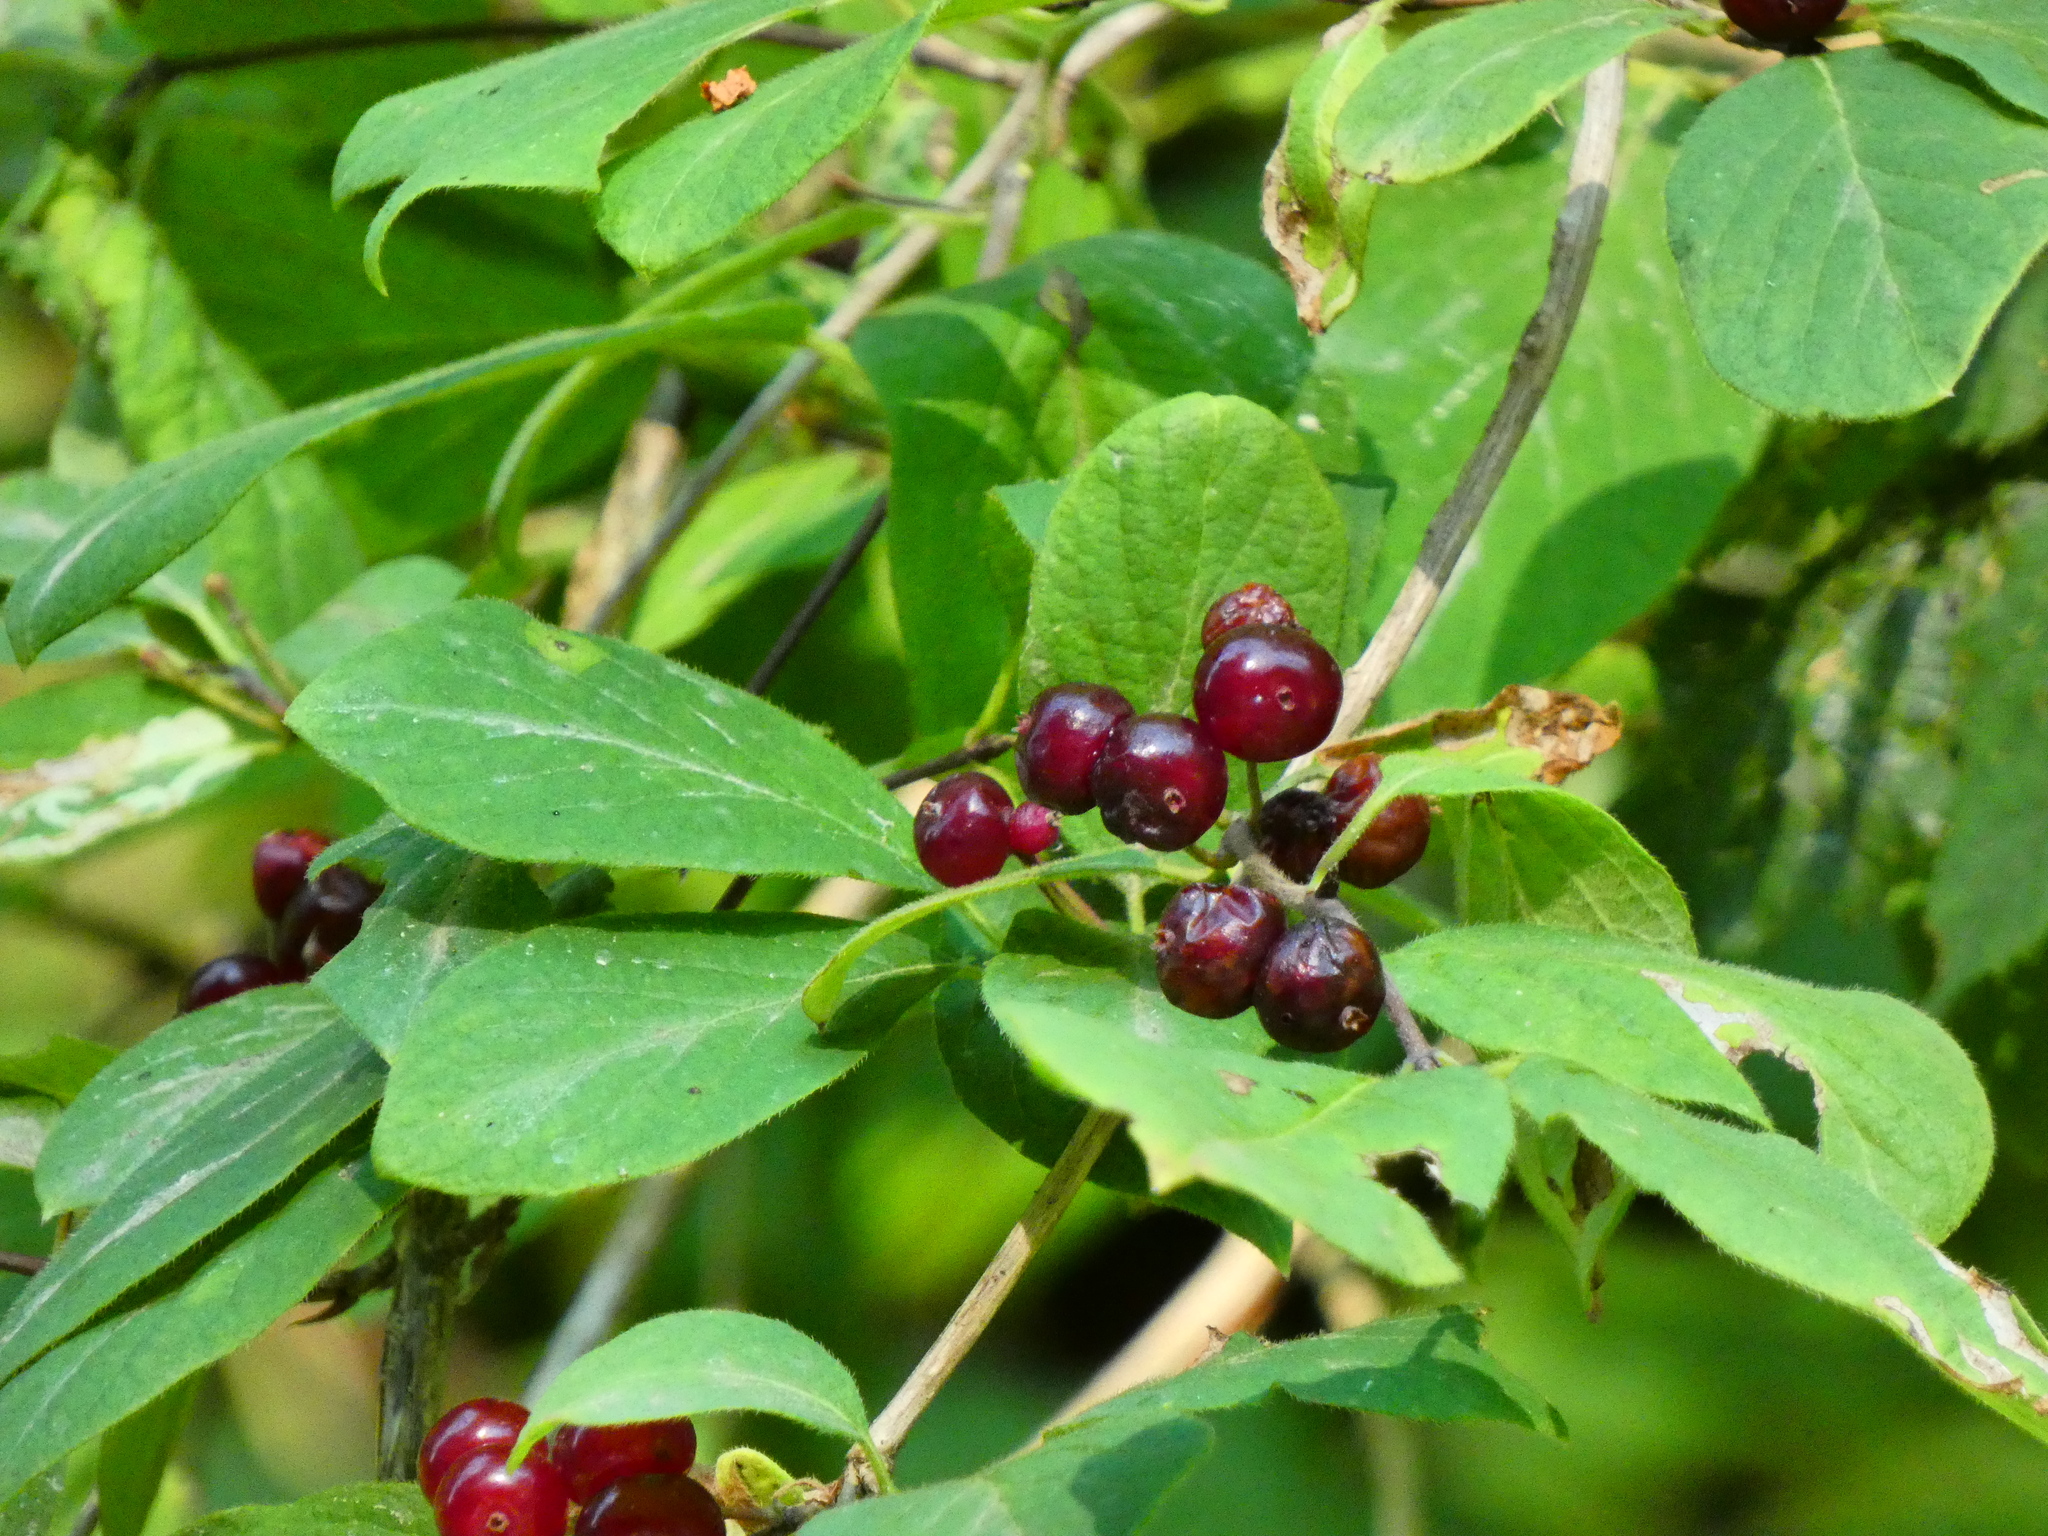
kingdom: Plantae
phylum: Tracheophyta
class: Magnoliopsida
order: Dipsacales
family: Caprifoliaceae
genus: Lonicera
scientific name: Lonicera xylosteum
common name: Fly honeysuckle
